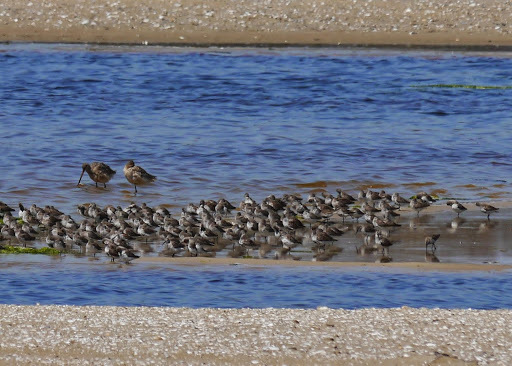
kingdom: Animalia
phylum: Chordata
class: Aves
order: Charadriiformes
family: Scolopacidae
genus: Calidris
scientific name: Calidris alpina
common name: Dunlin
